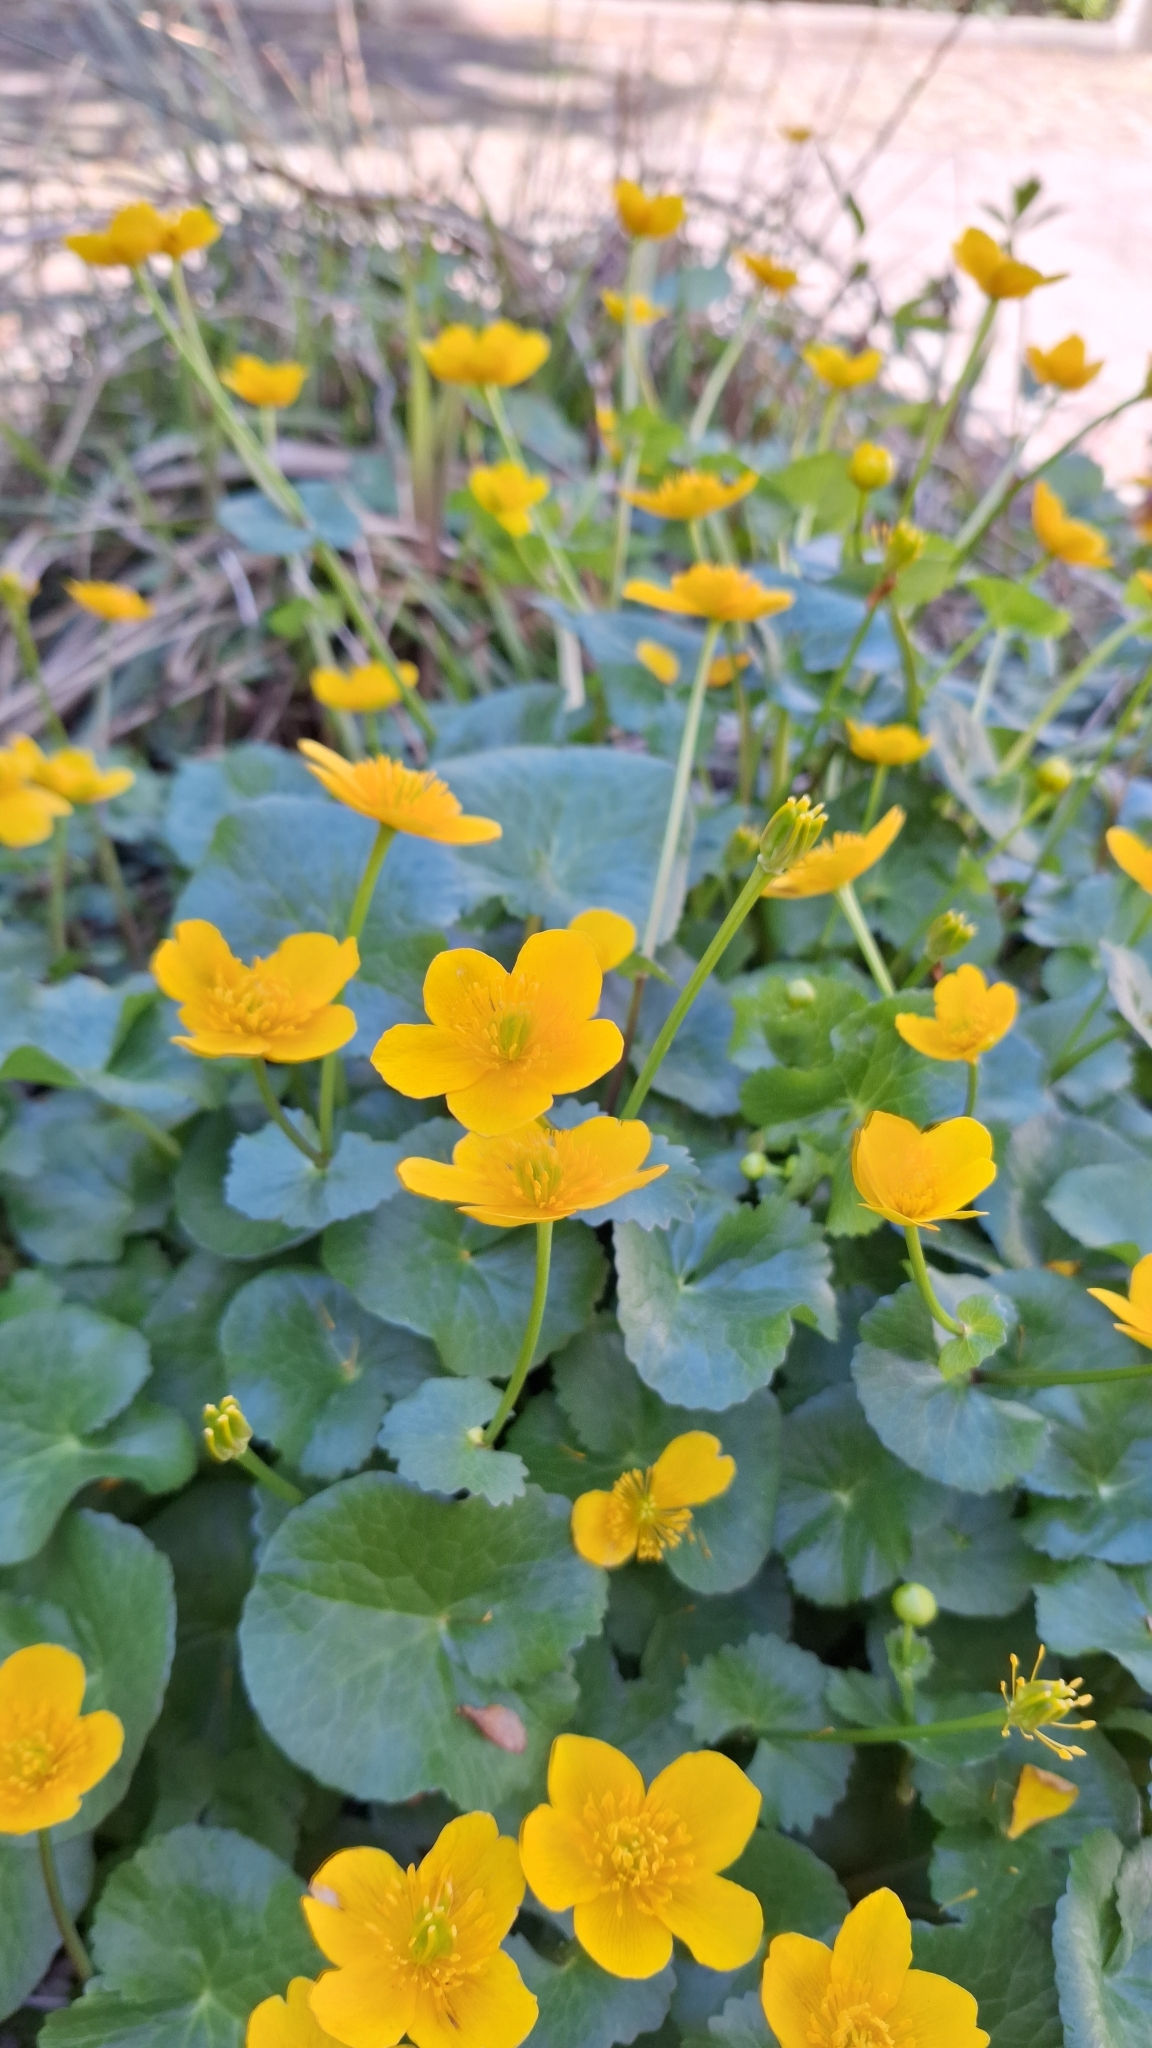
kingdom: Plantae
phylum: Tracheophyta
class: Magnoliopsida
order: Ranunculales
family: Ranunculaceae
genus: Caltha
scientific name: Caltha palustris
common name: Marsh marigold
